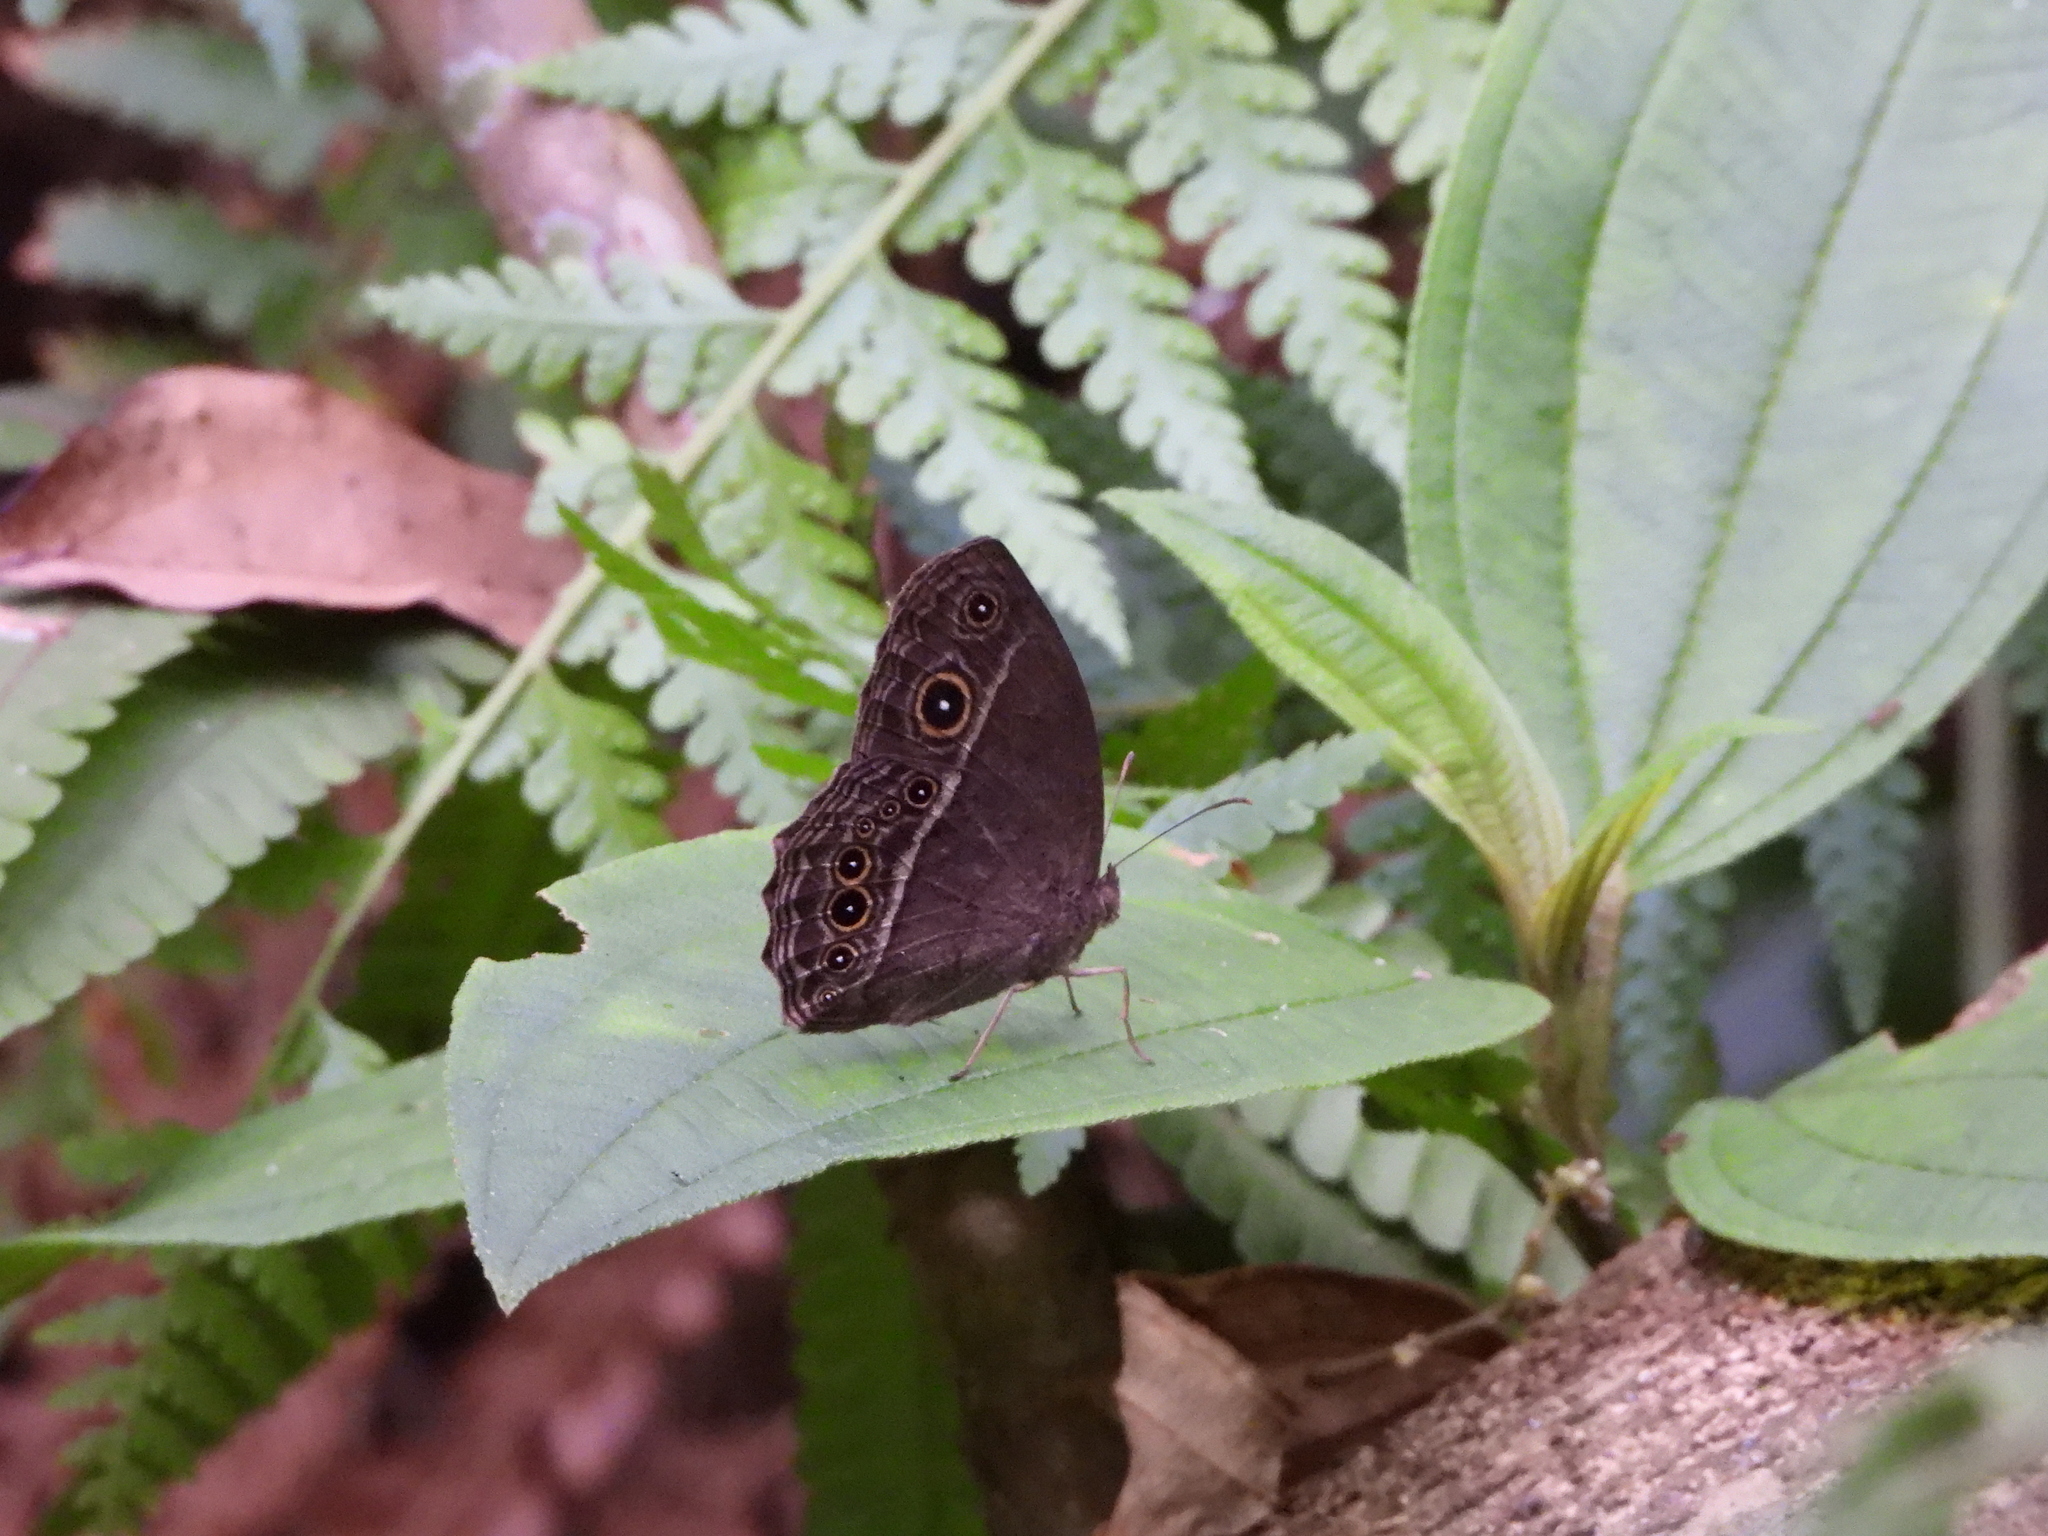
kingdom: Animalia
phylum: Arthropoda
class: Insecta
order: Lepidoptera
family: Nymphalidae
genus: Mycalesis
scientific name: Mycalesis horsfieldii
